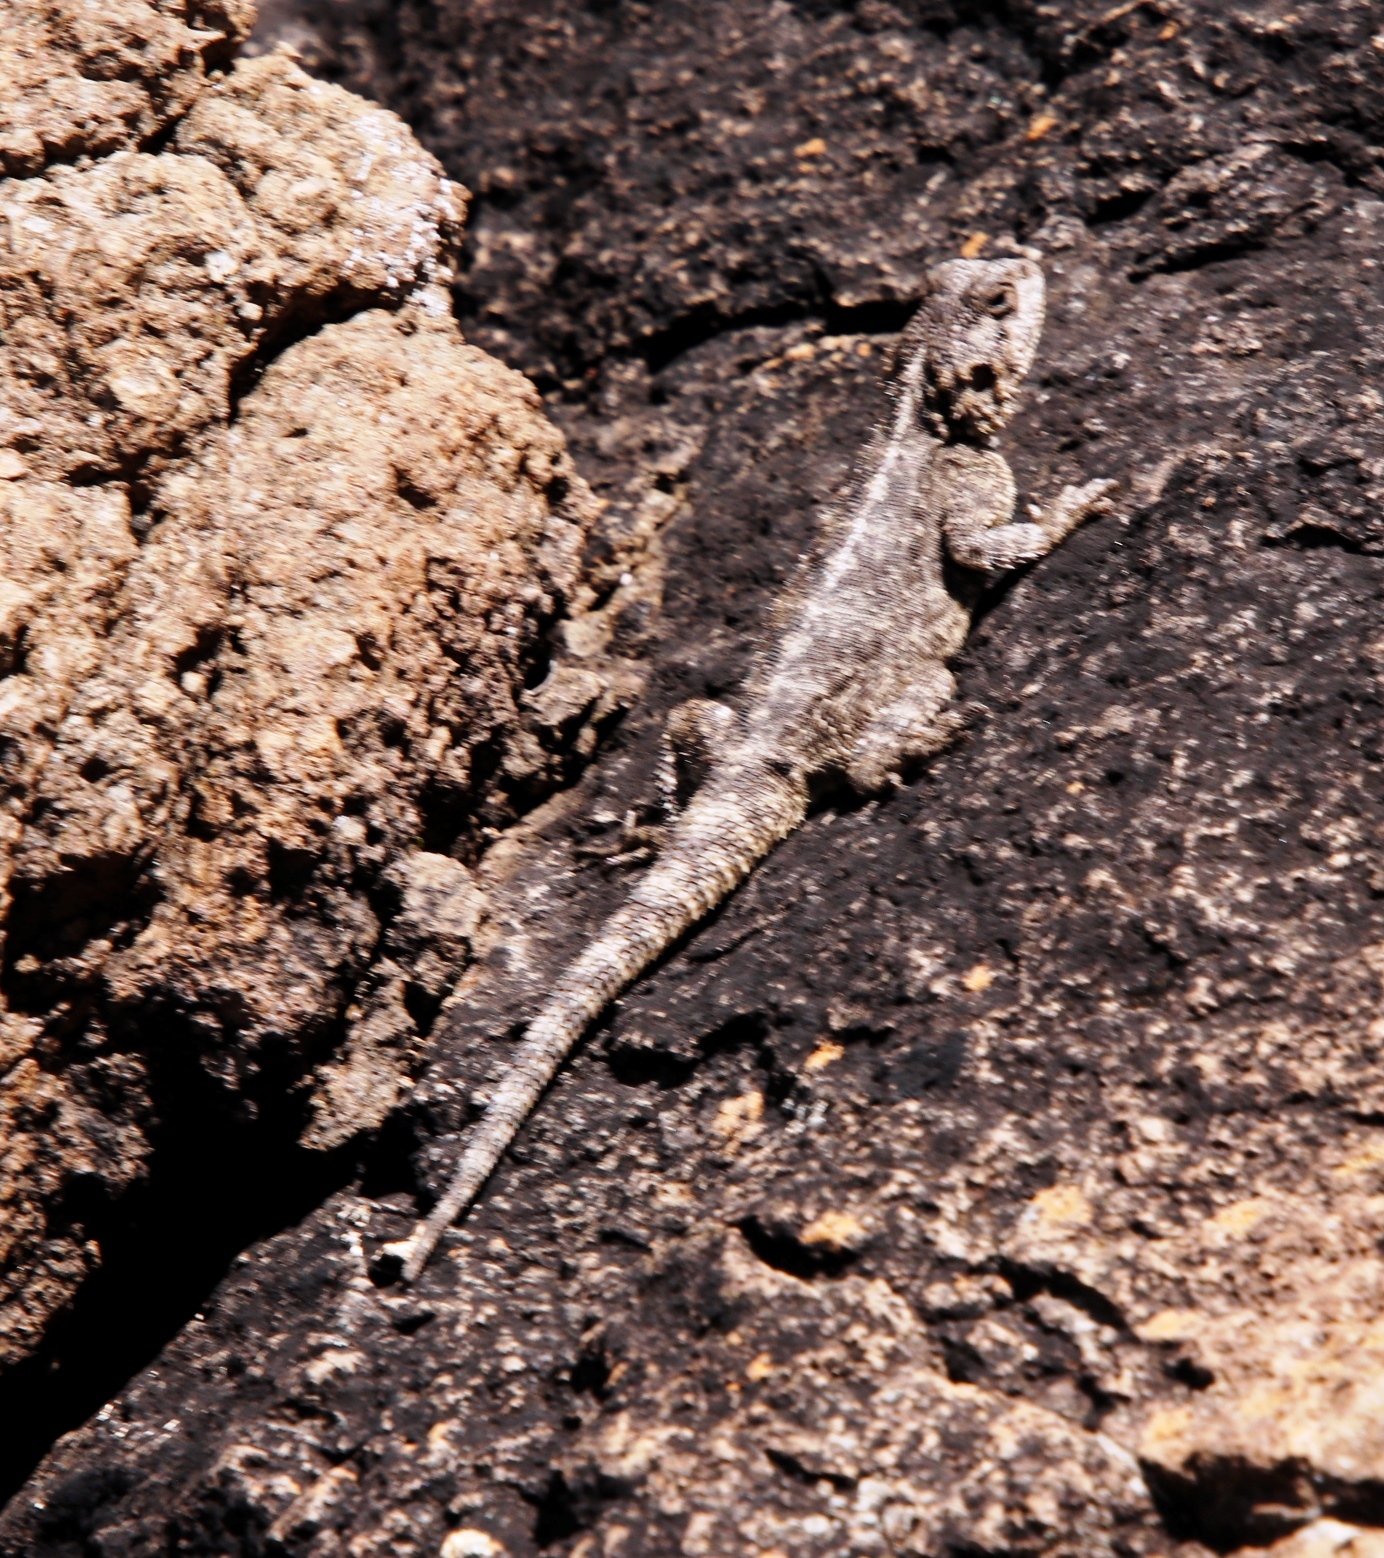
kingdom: Animalia
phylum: Chordata
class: Squamata
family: Agamidae
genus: Agama
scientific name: Agama atra
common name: Southern african rock agama
